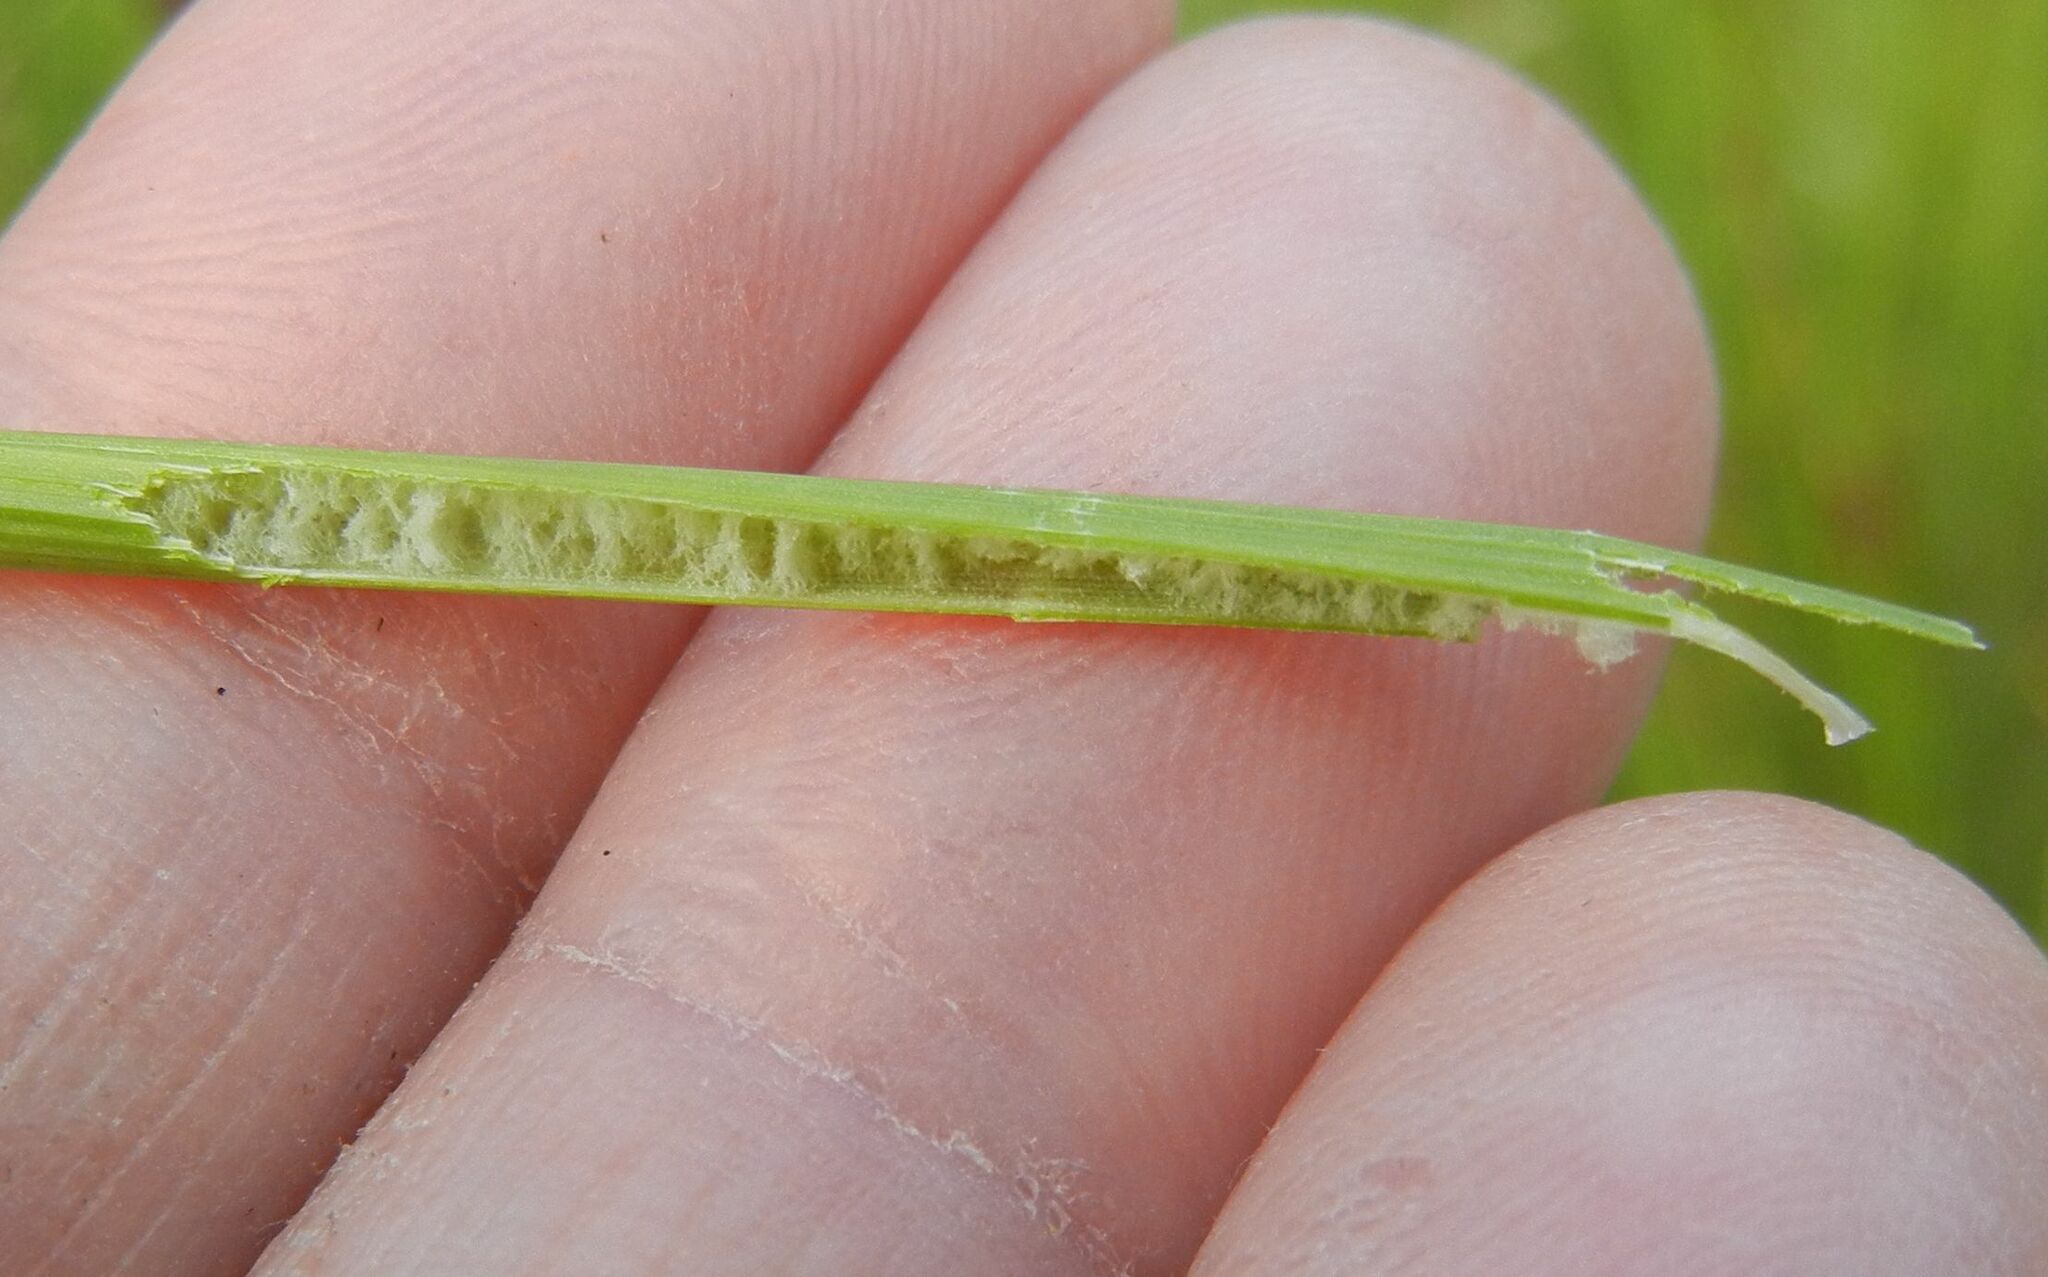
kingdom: Plantae
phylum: Tracheophyta
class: Liliopsida
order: Poales
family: Juncaceae
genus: Juncus
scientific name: Juncus conglomeratus
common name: Compact rush
